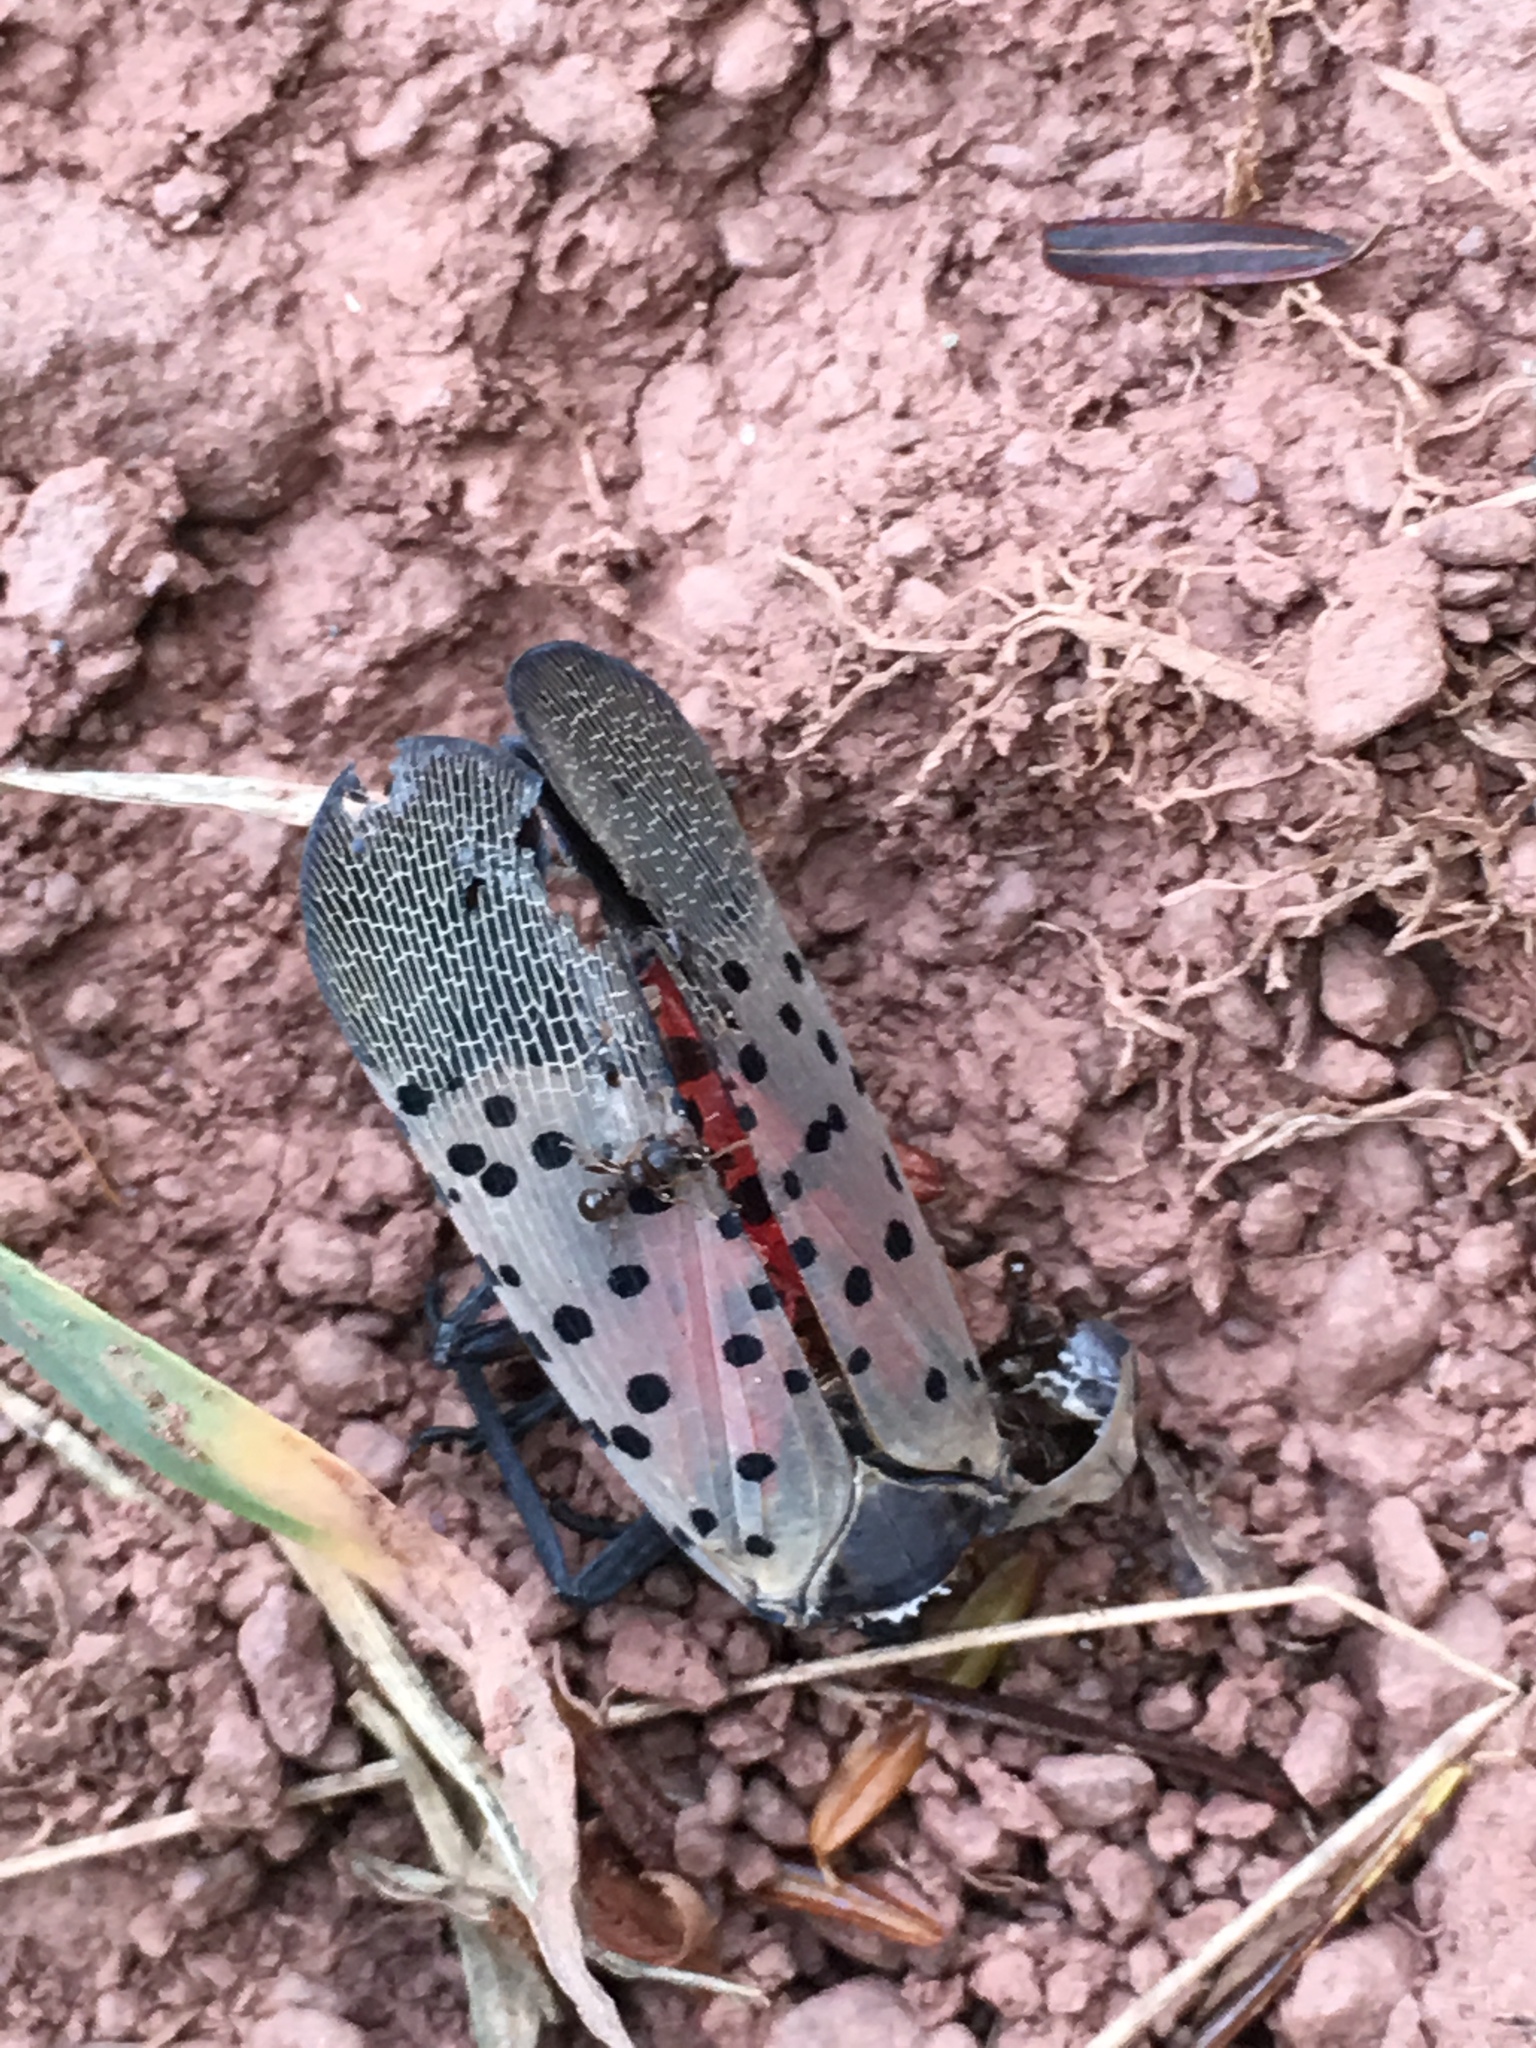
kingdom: Animalia
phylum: Arthropoda
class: Insecta
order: Hemiptera
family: Fulgoridae
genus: Lycorma
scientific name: Lycorma delicatula
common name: Spotted lanternfly
